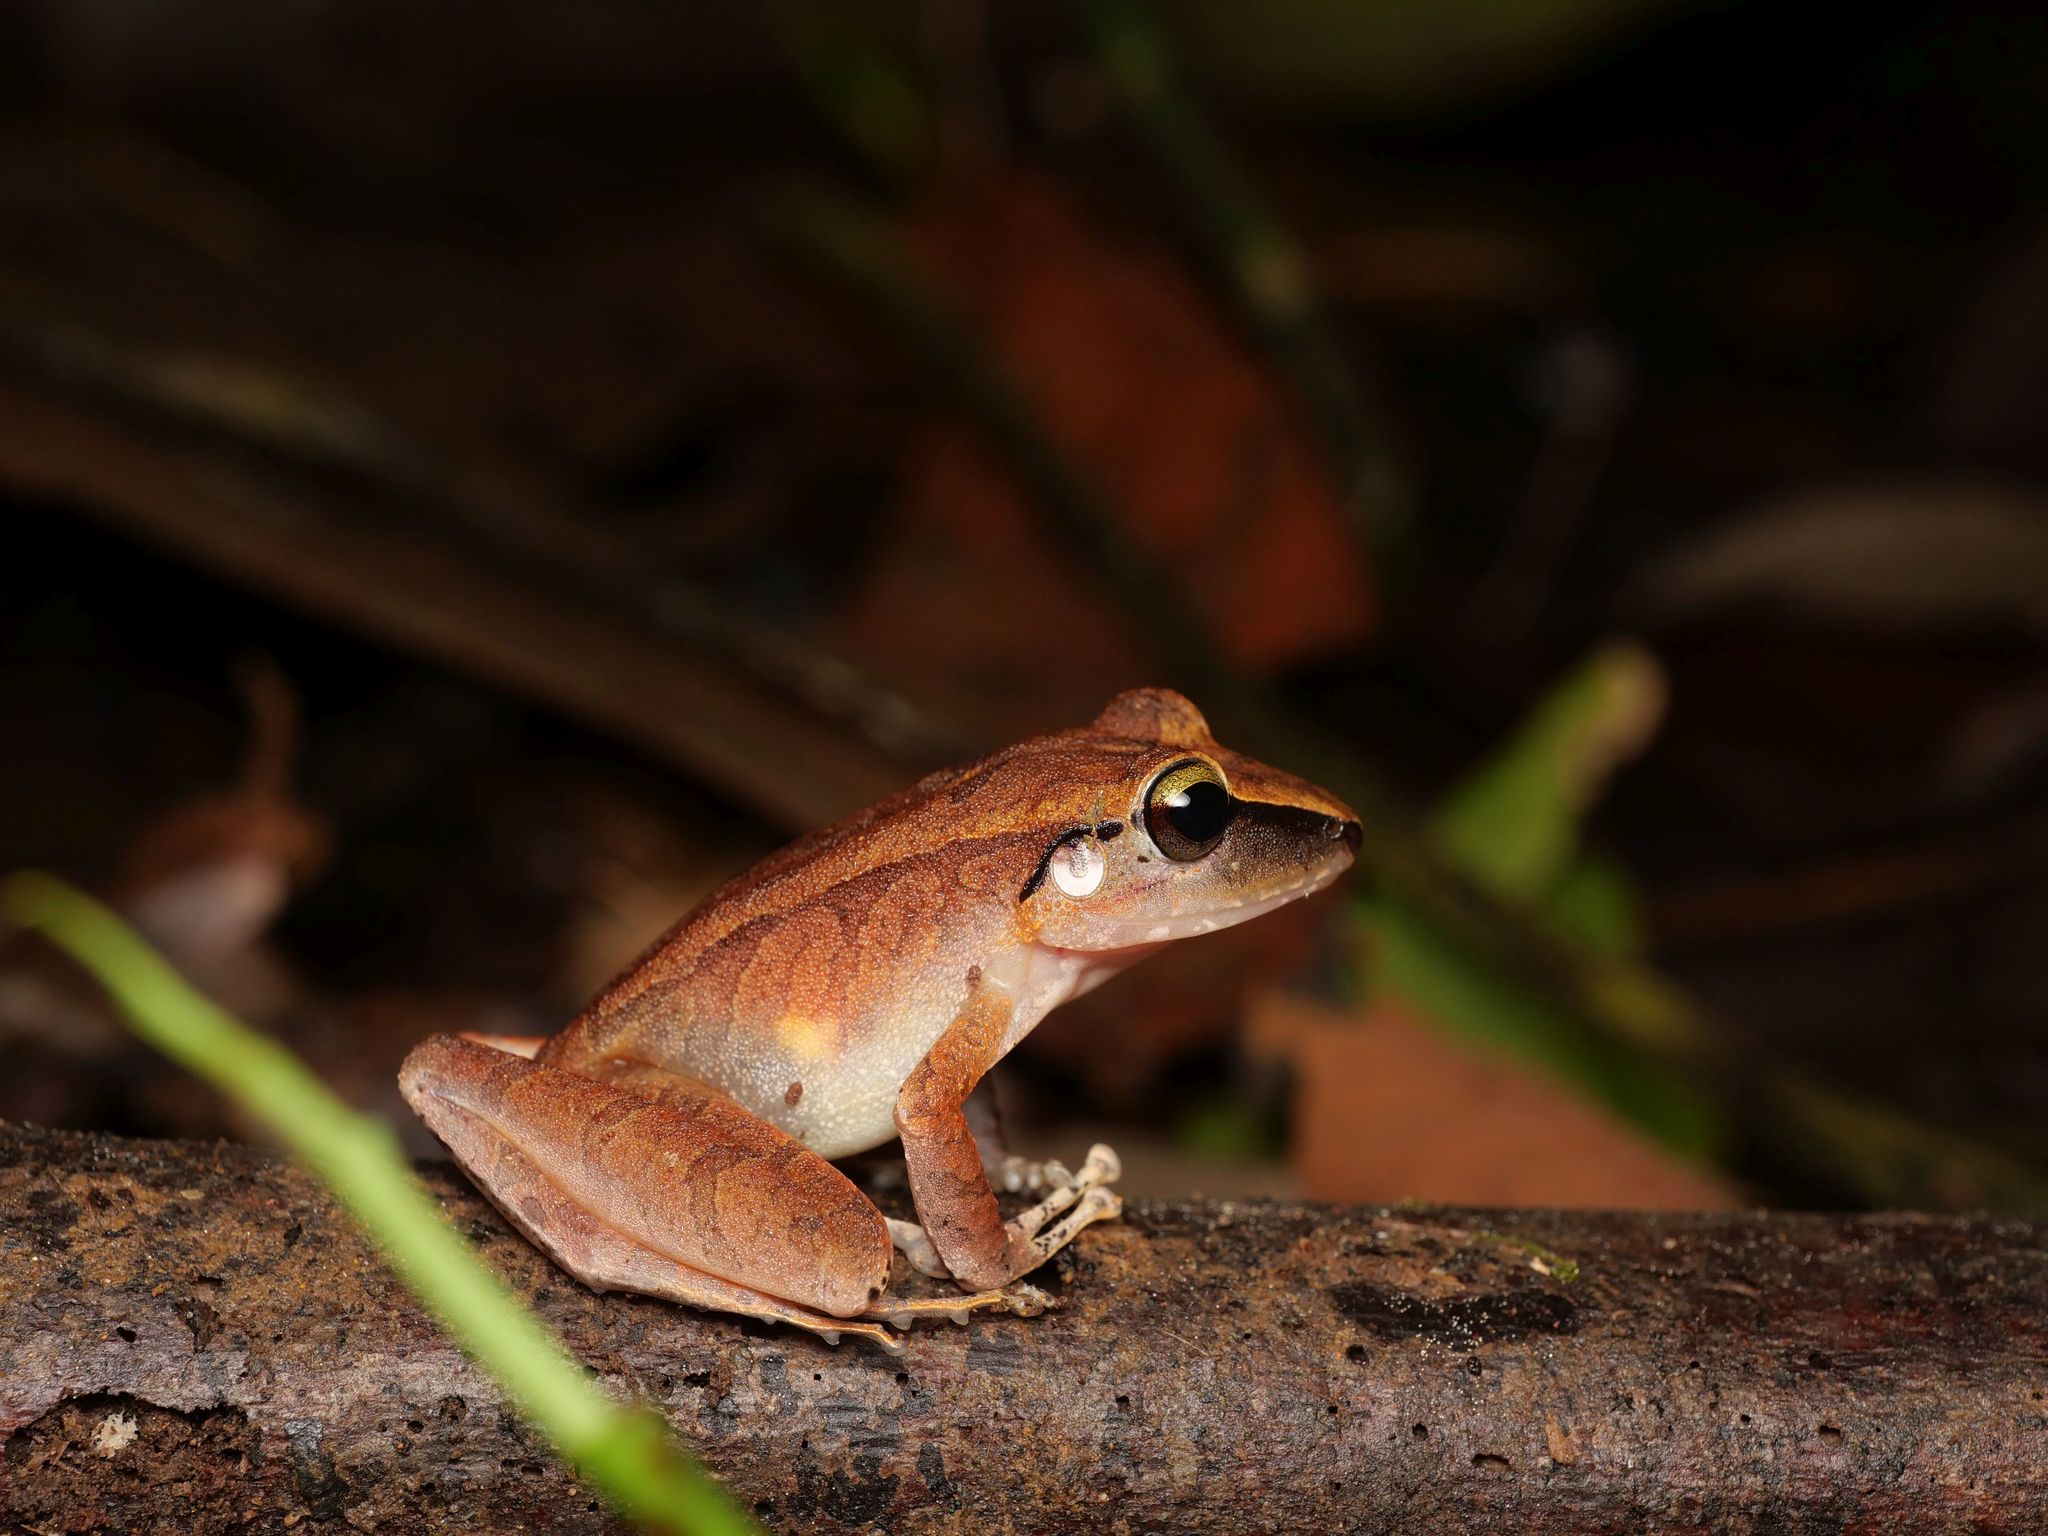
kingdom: Animalia
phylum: Chordata
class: Amphibia
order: Anura
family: Craugastoridae
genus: Pristimantis
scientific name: Pristimantis achatinus
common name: Cachabi robber frog
